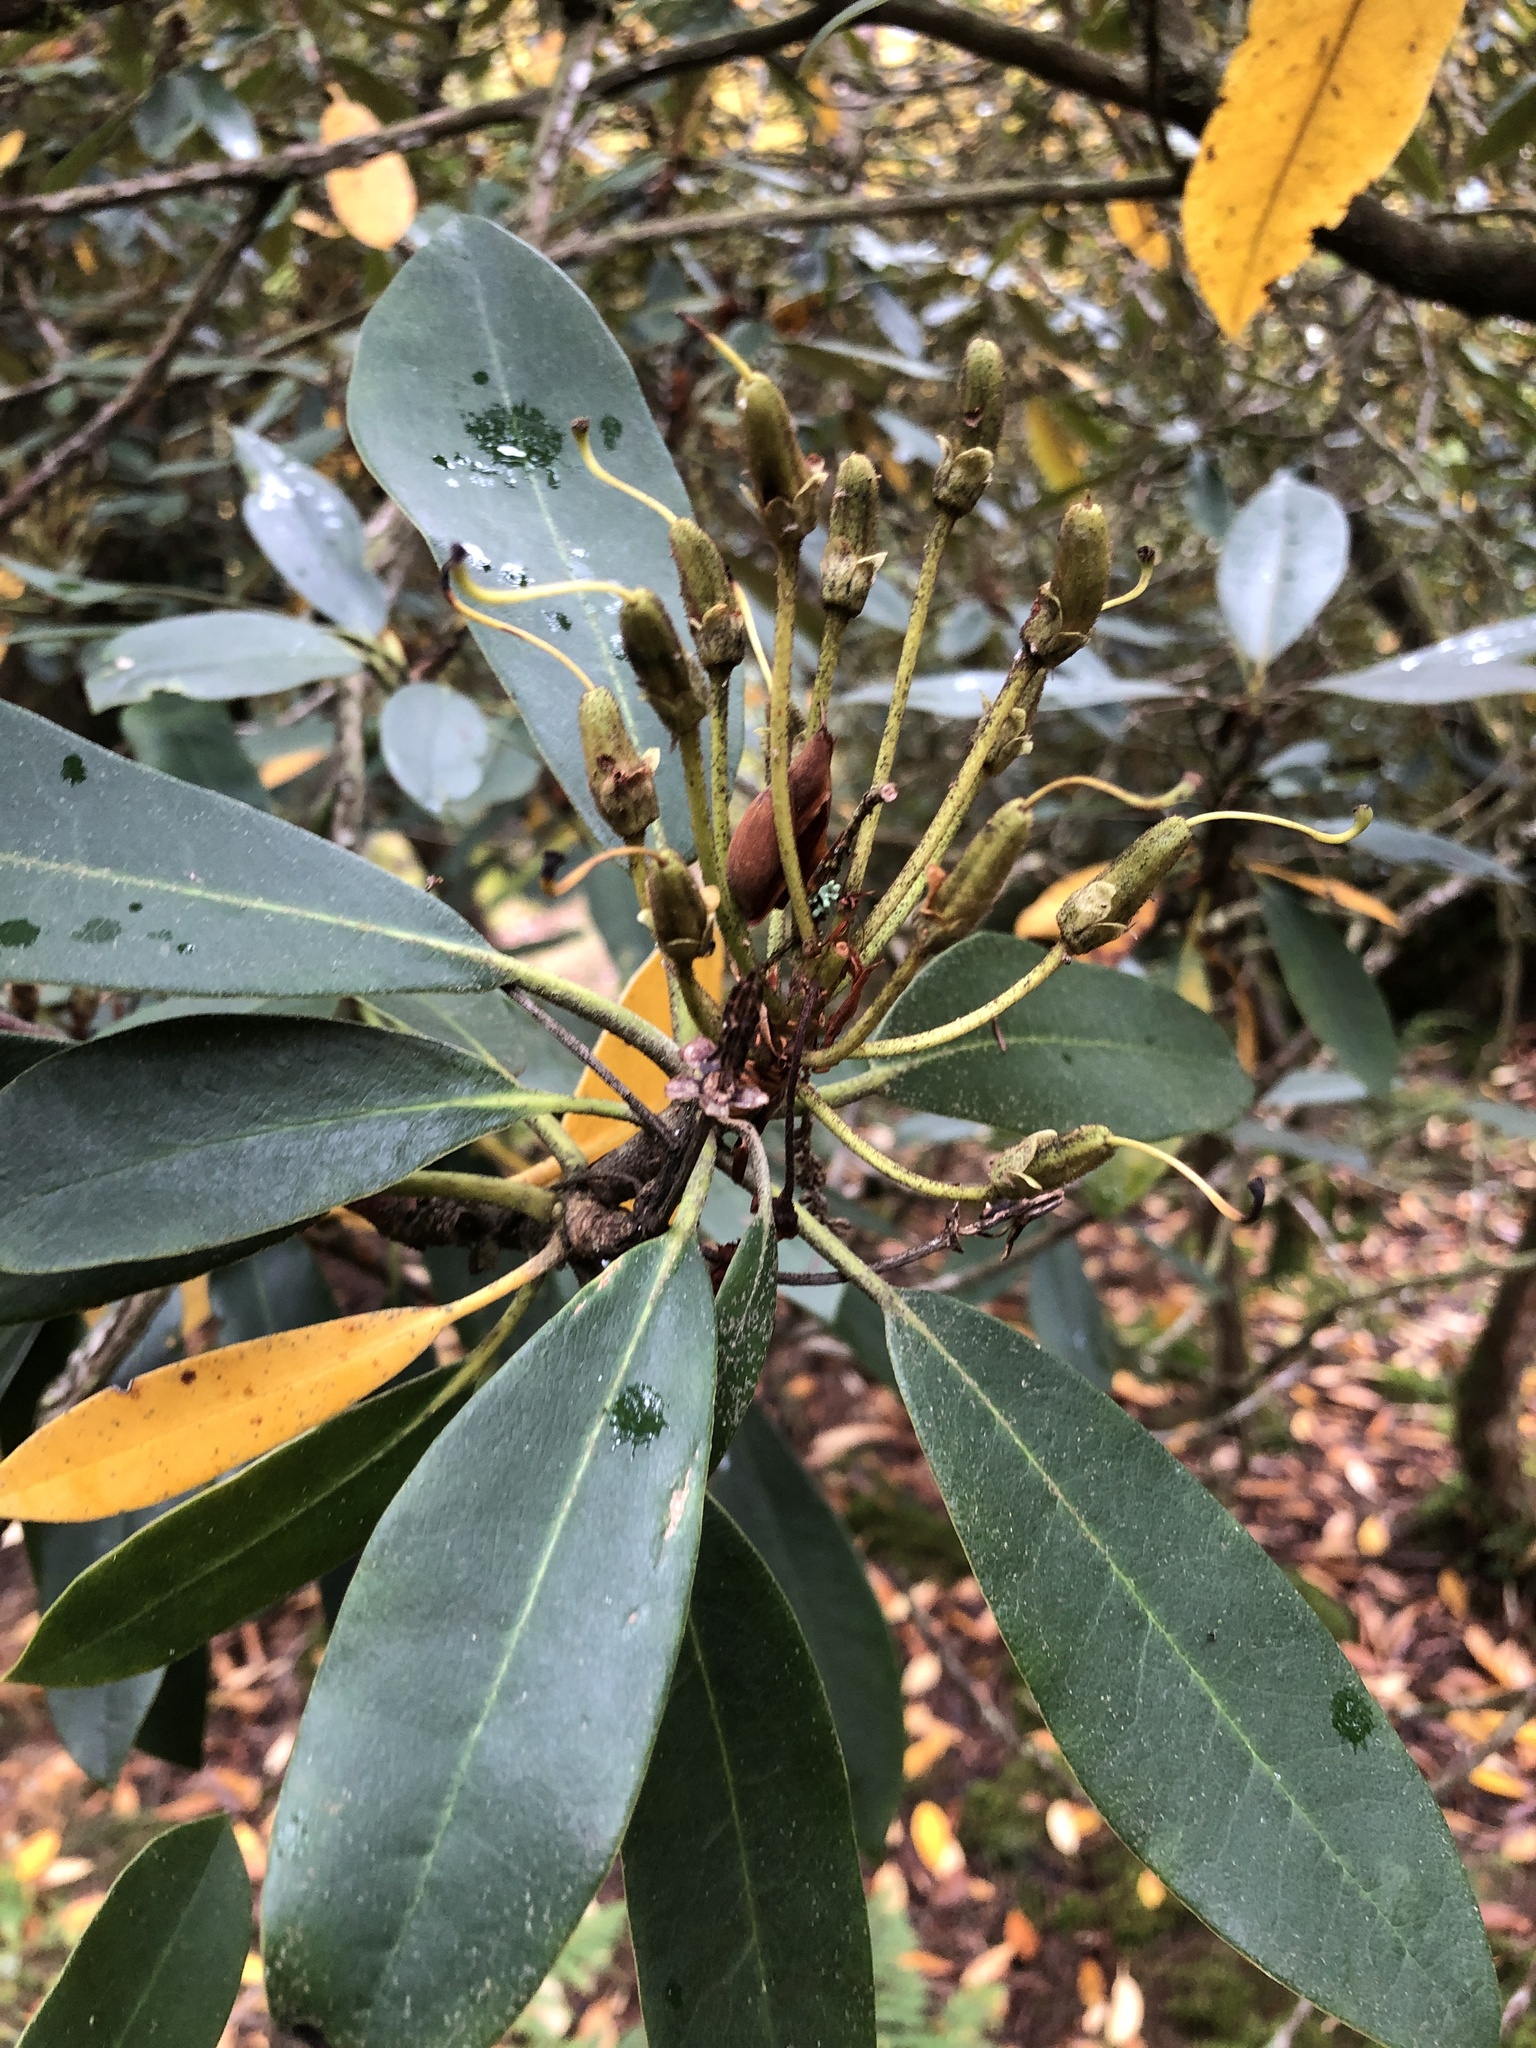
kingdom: Plantae
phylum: Tracheophyta
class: Magnoliopsida
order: Ericales
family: Ericaceae
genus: Rhododendron
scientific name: Rhododendron maximum
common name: Great rhododendron
